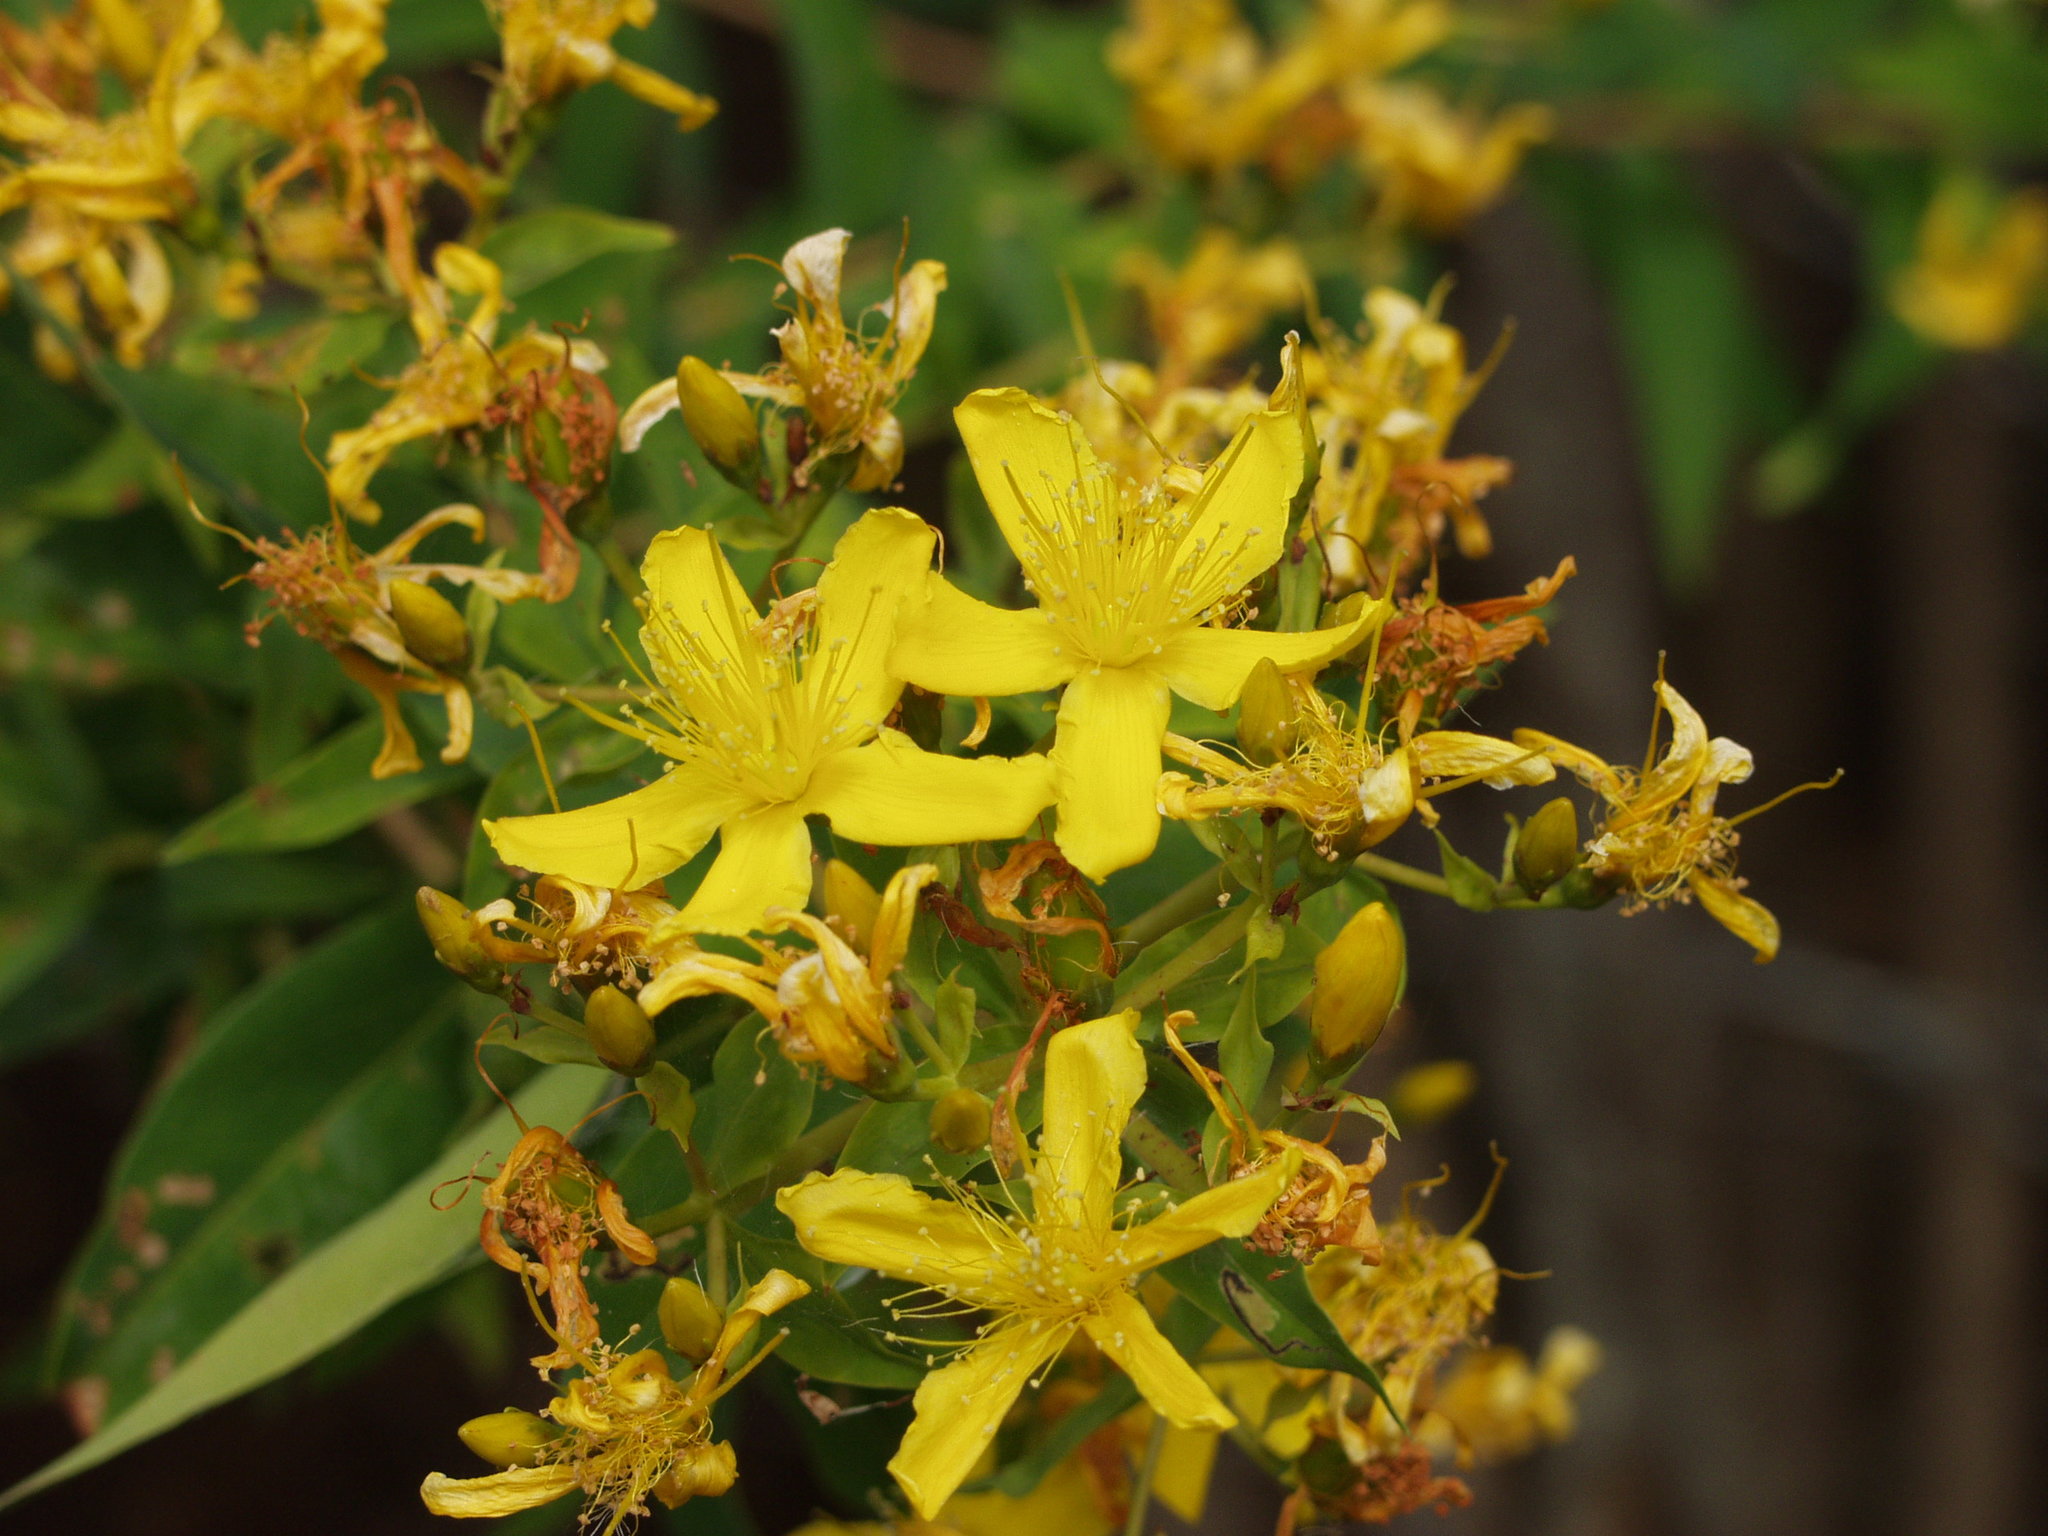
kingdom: Plantae
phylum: Tracheophyta
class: Magnoliopsida
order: Malpighiales
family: Hypericaceae
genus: Hypericum
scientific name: Hypericum canariense
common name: Canary island st. johnswort
